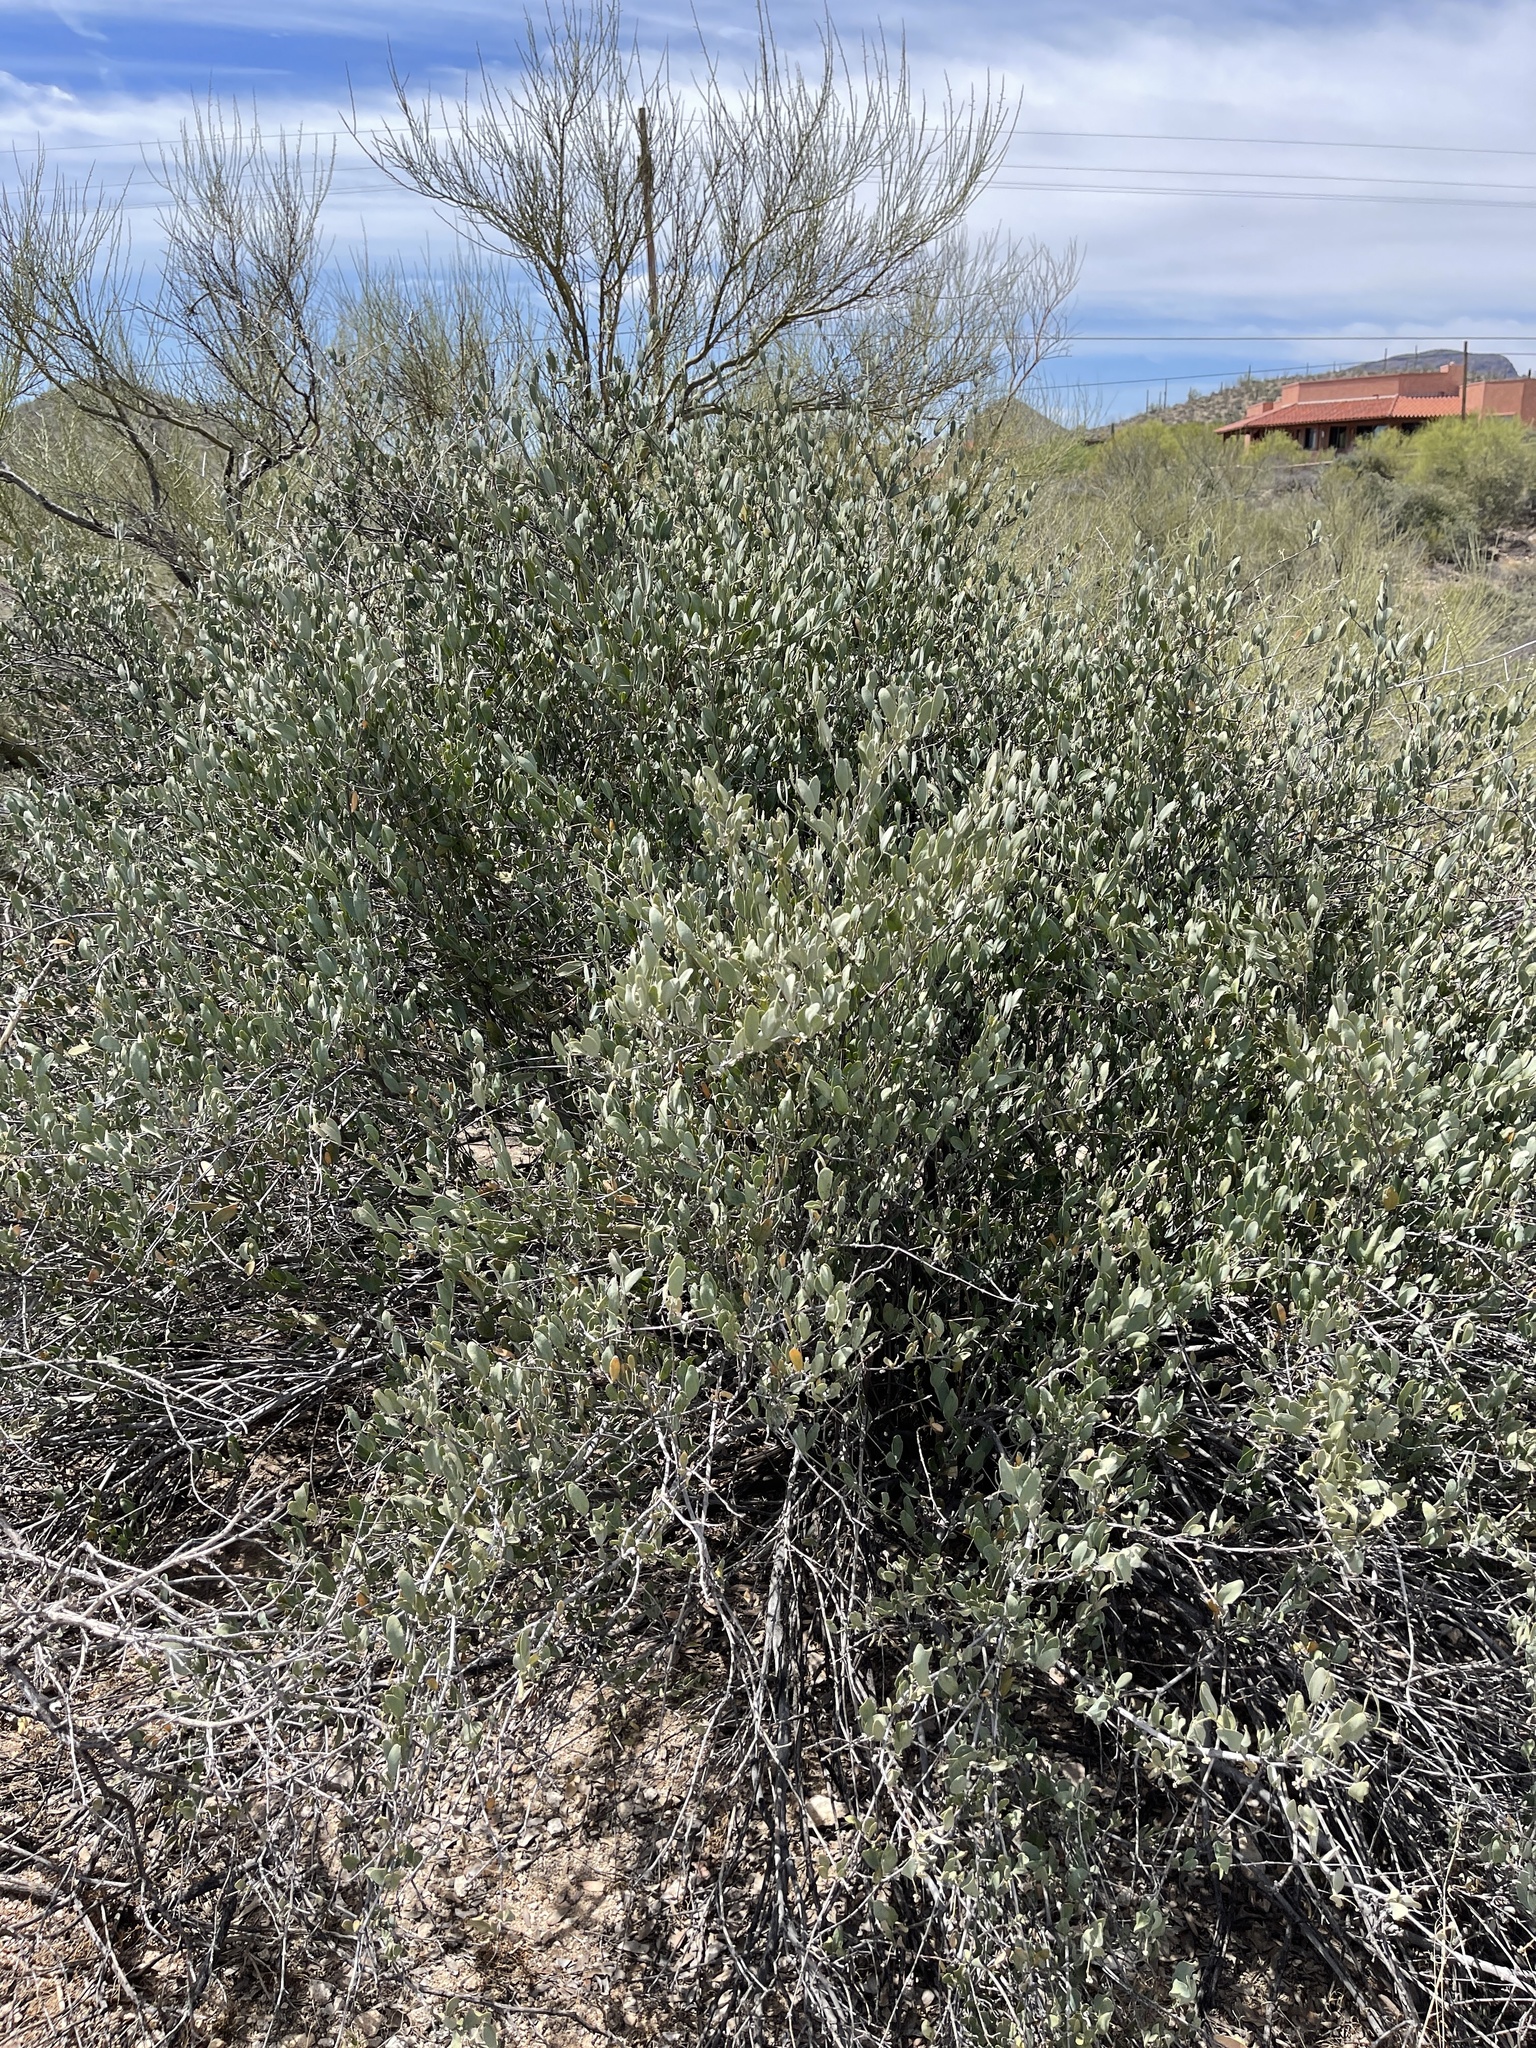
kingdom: Plantae
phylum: Tracheophyta
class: Magnoliopsida
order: Caryophyllales
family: Simmondsiaceae
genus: Simmondsia
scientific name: Simmondsia chinensis
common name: Jojoba
